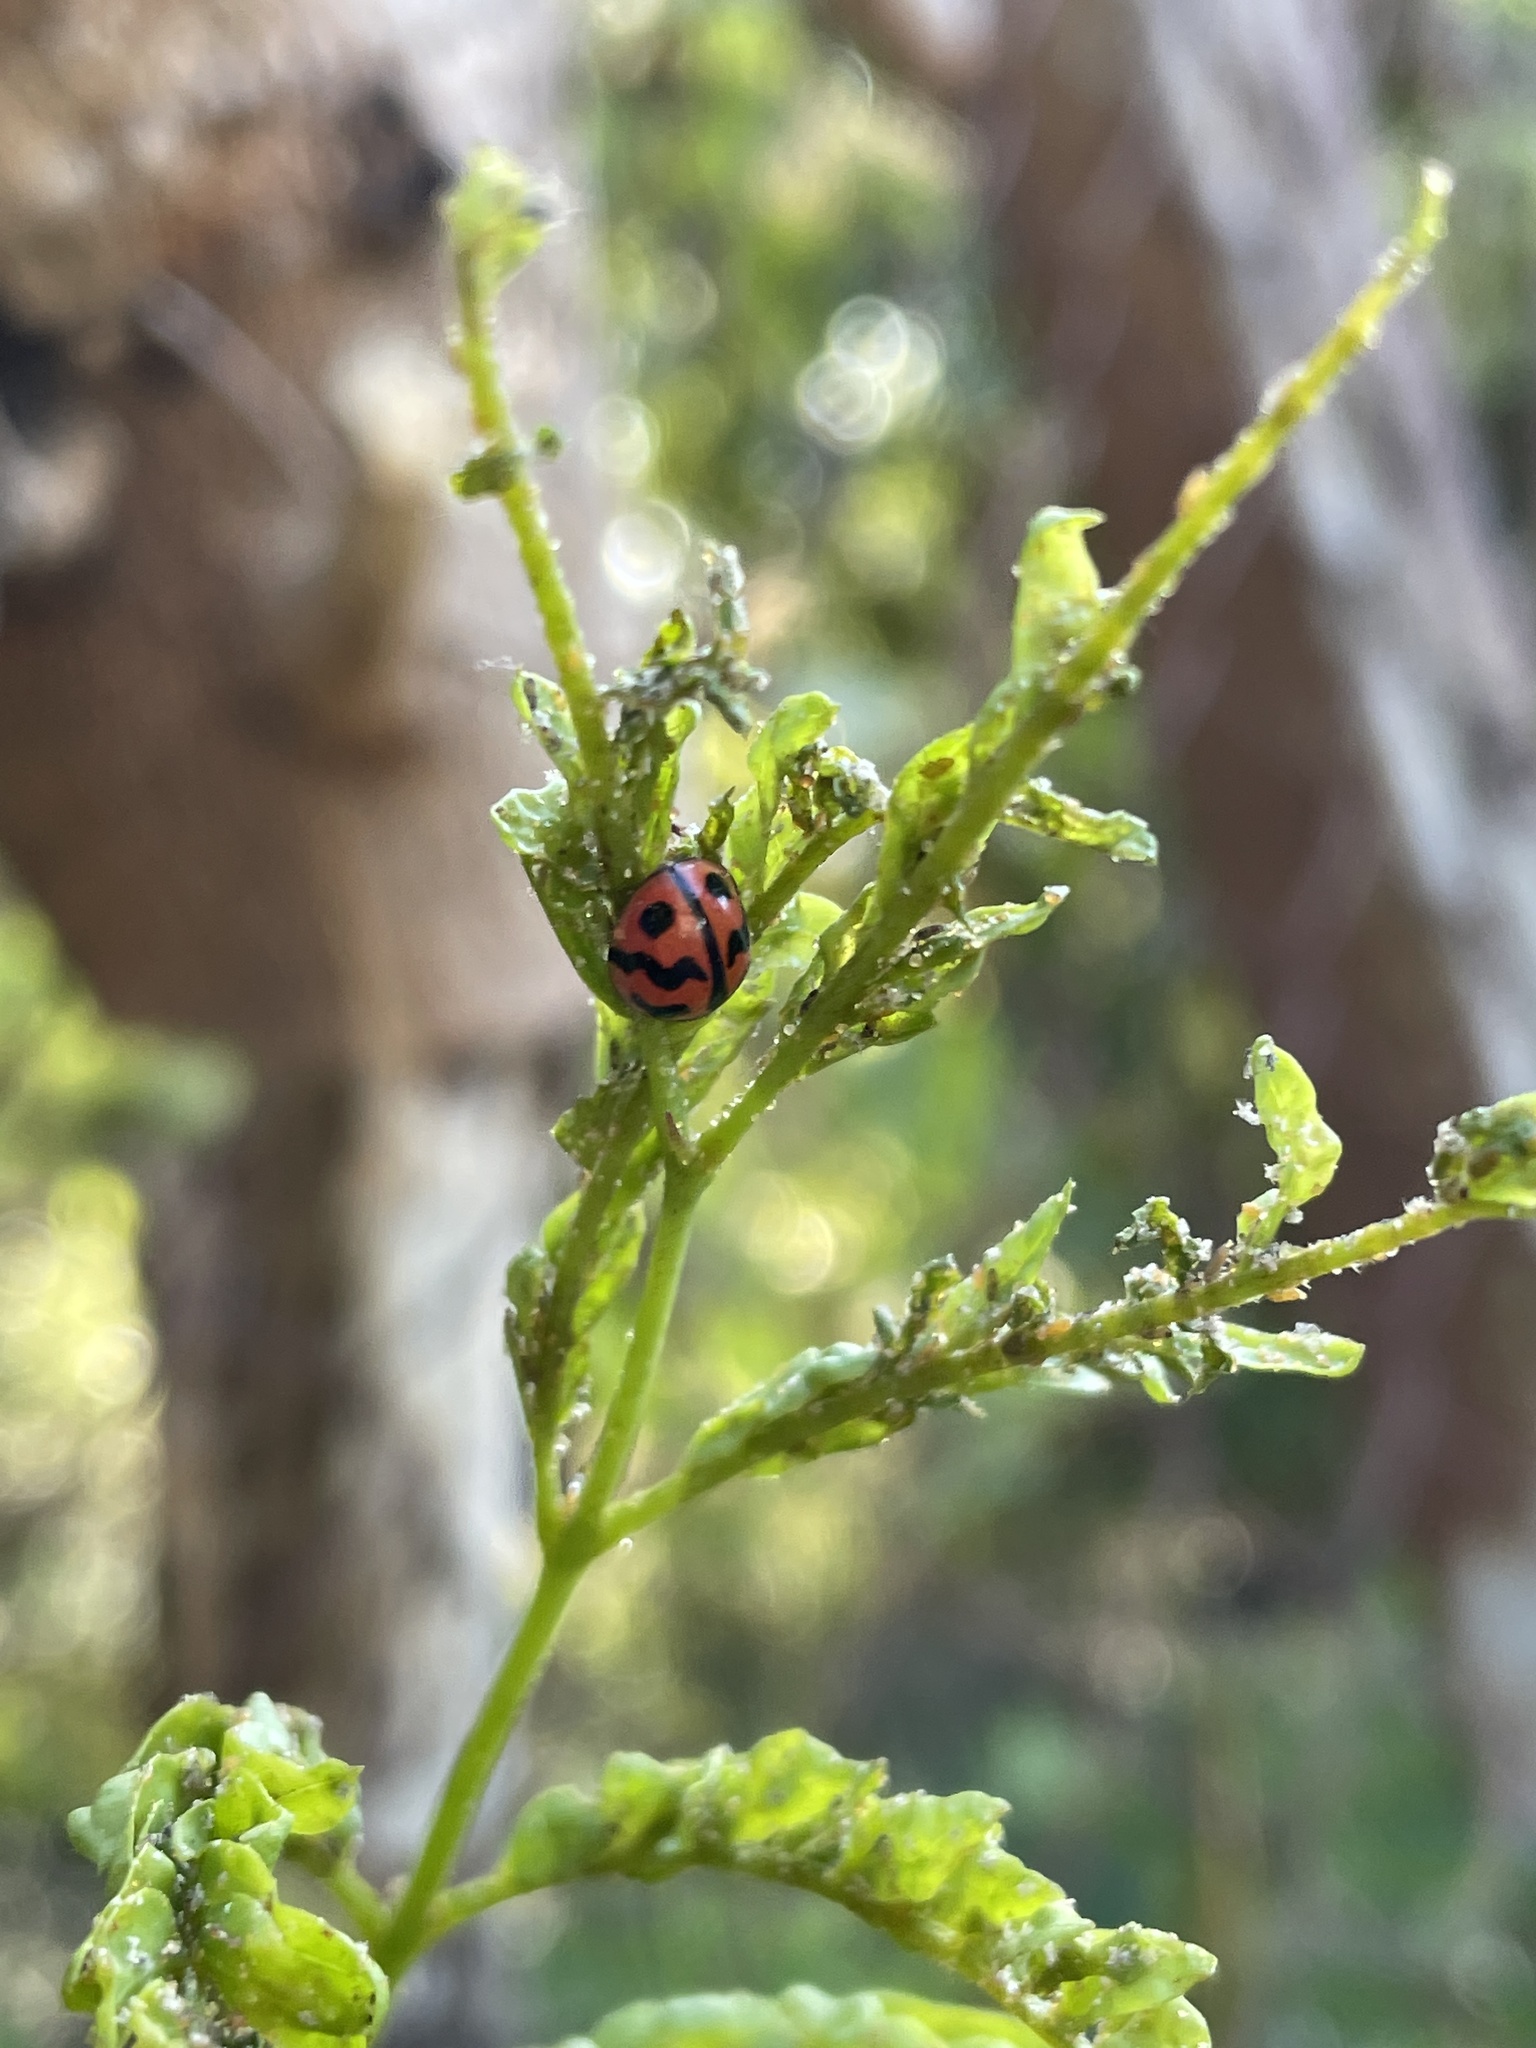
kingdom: Animalia
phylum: Arthropoda
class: Insecta
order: Coleoptera
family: Coccinellidae
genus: Cheilomenes
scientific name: Cheilomenes sexmaculata
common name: Ladybird beetle
